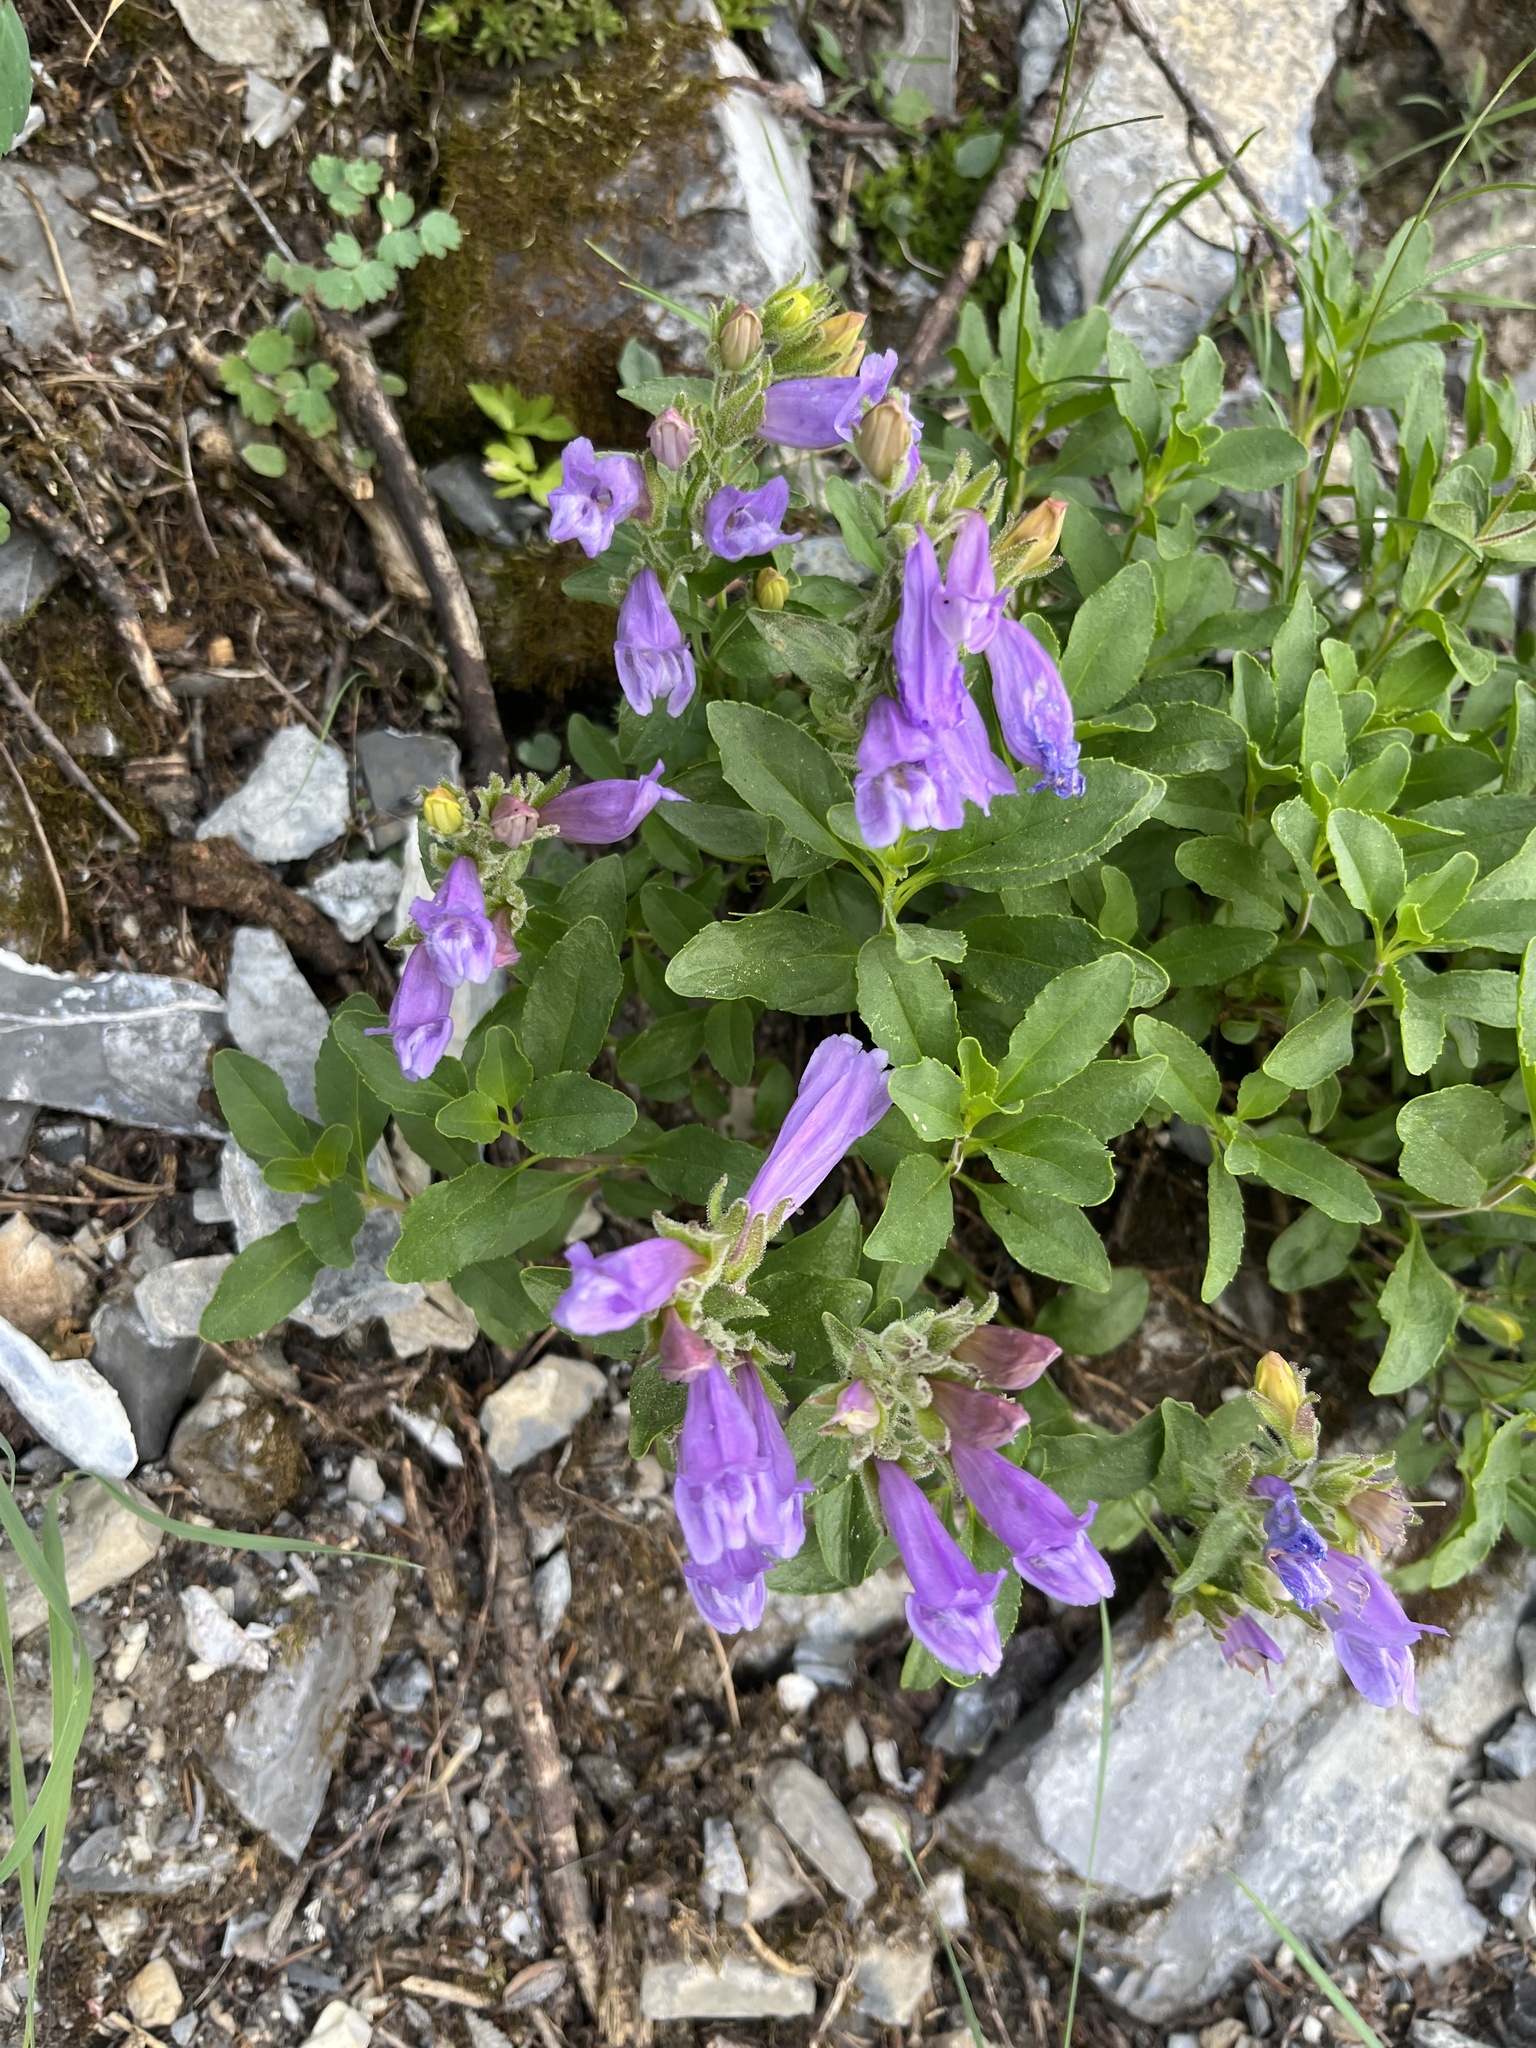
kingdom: Plantae
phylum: Tracheophyta
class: Magnoliopsida
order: Lamiales
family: Plantaginaceae
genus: Penstemon
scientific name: Penstemon ellipticus
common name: Alpine beardtongue
